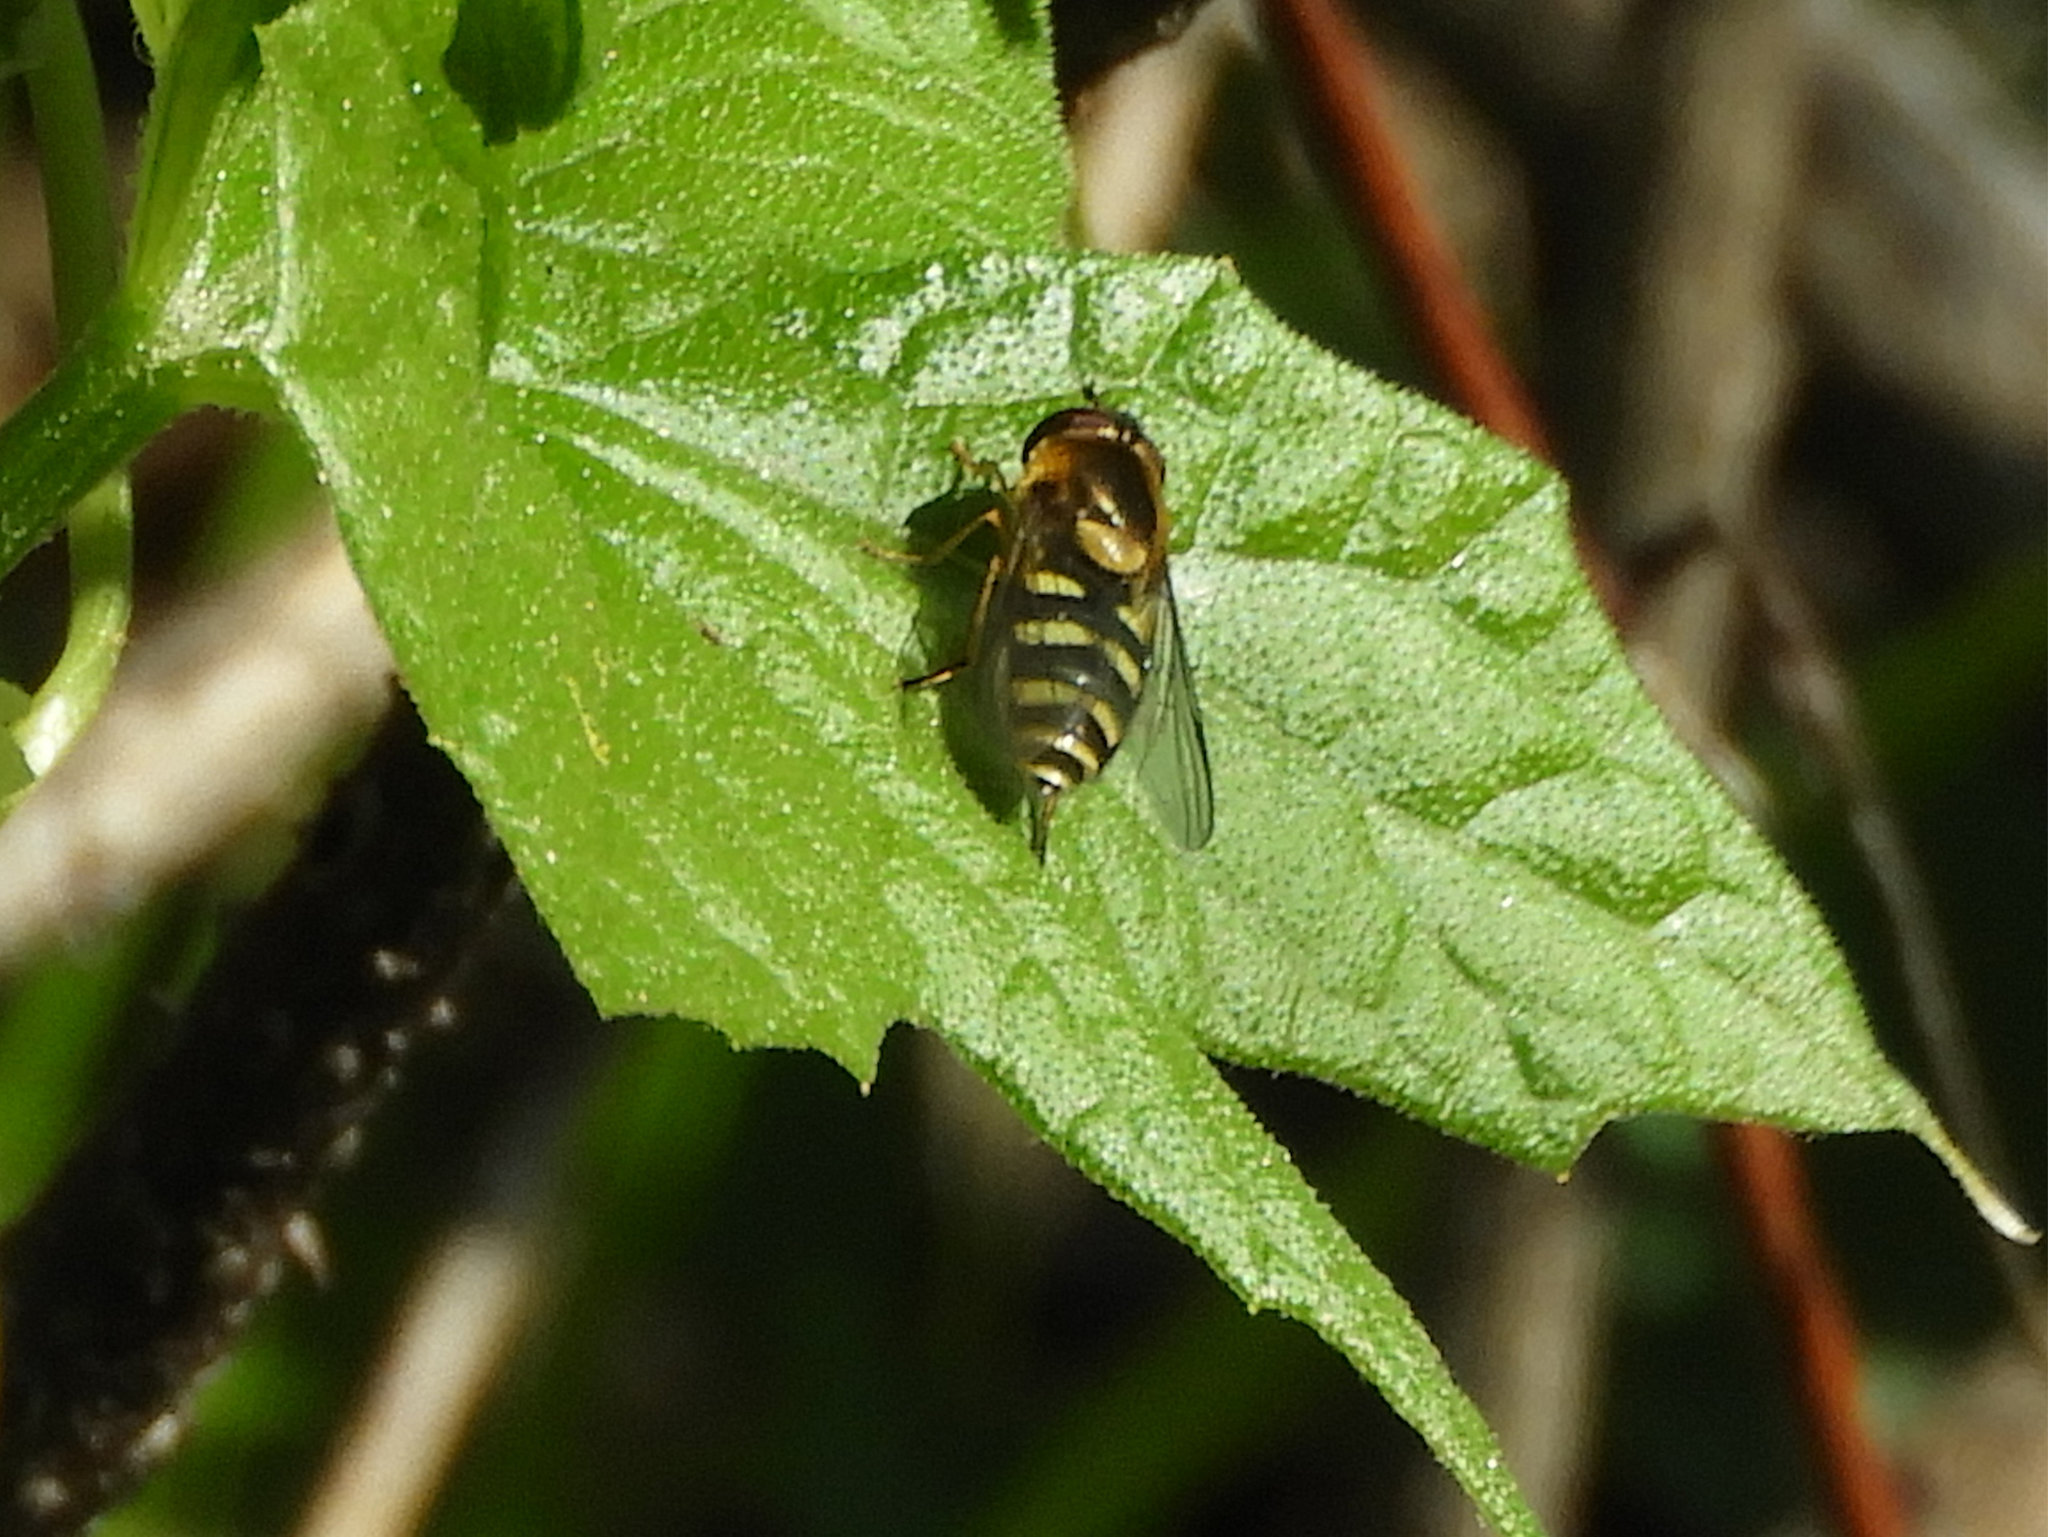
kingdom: Animalia
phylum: Arthropoda
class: Insecta
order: Diptera
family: Syrphidae
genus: Syrphus
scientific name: Syrphus opinator
